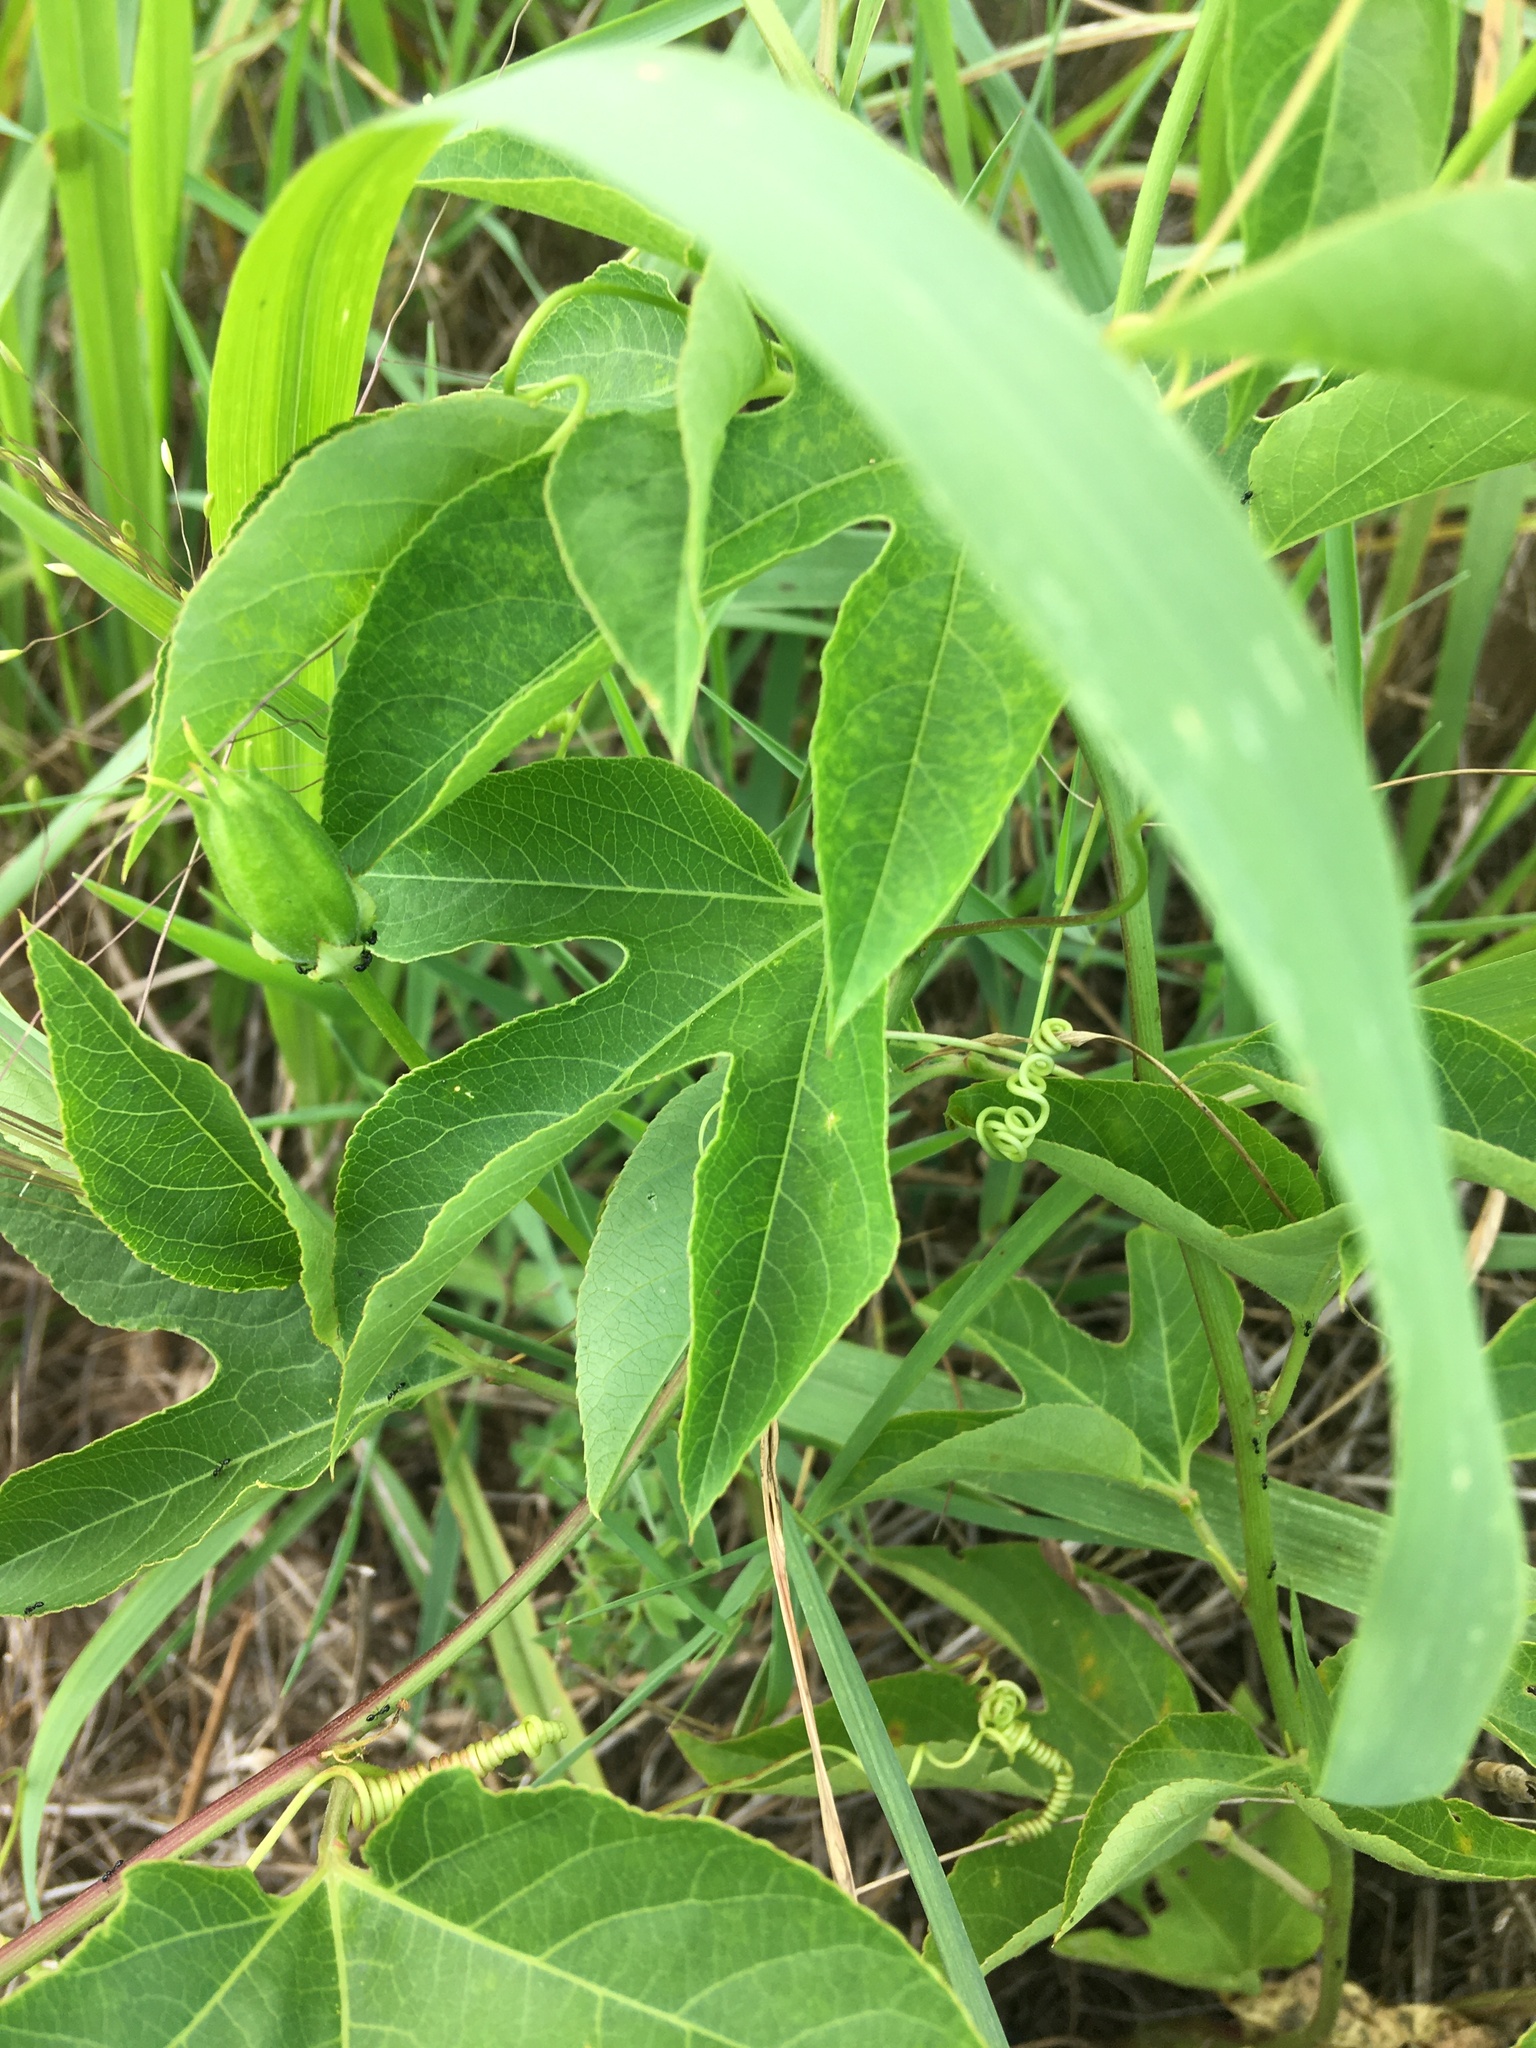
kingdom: Plantae
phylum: Tracheophyta
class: Magnoliopsida
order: Malpighiales
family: Passifloraceae
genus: Passiflora
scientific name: Passiflora incarnata
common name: Apricot-vine
